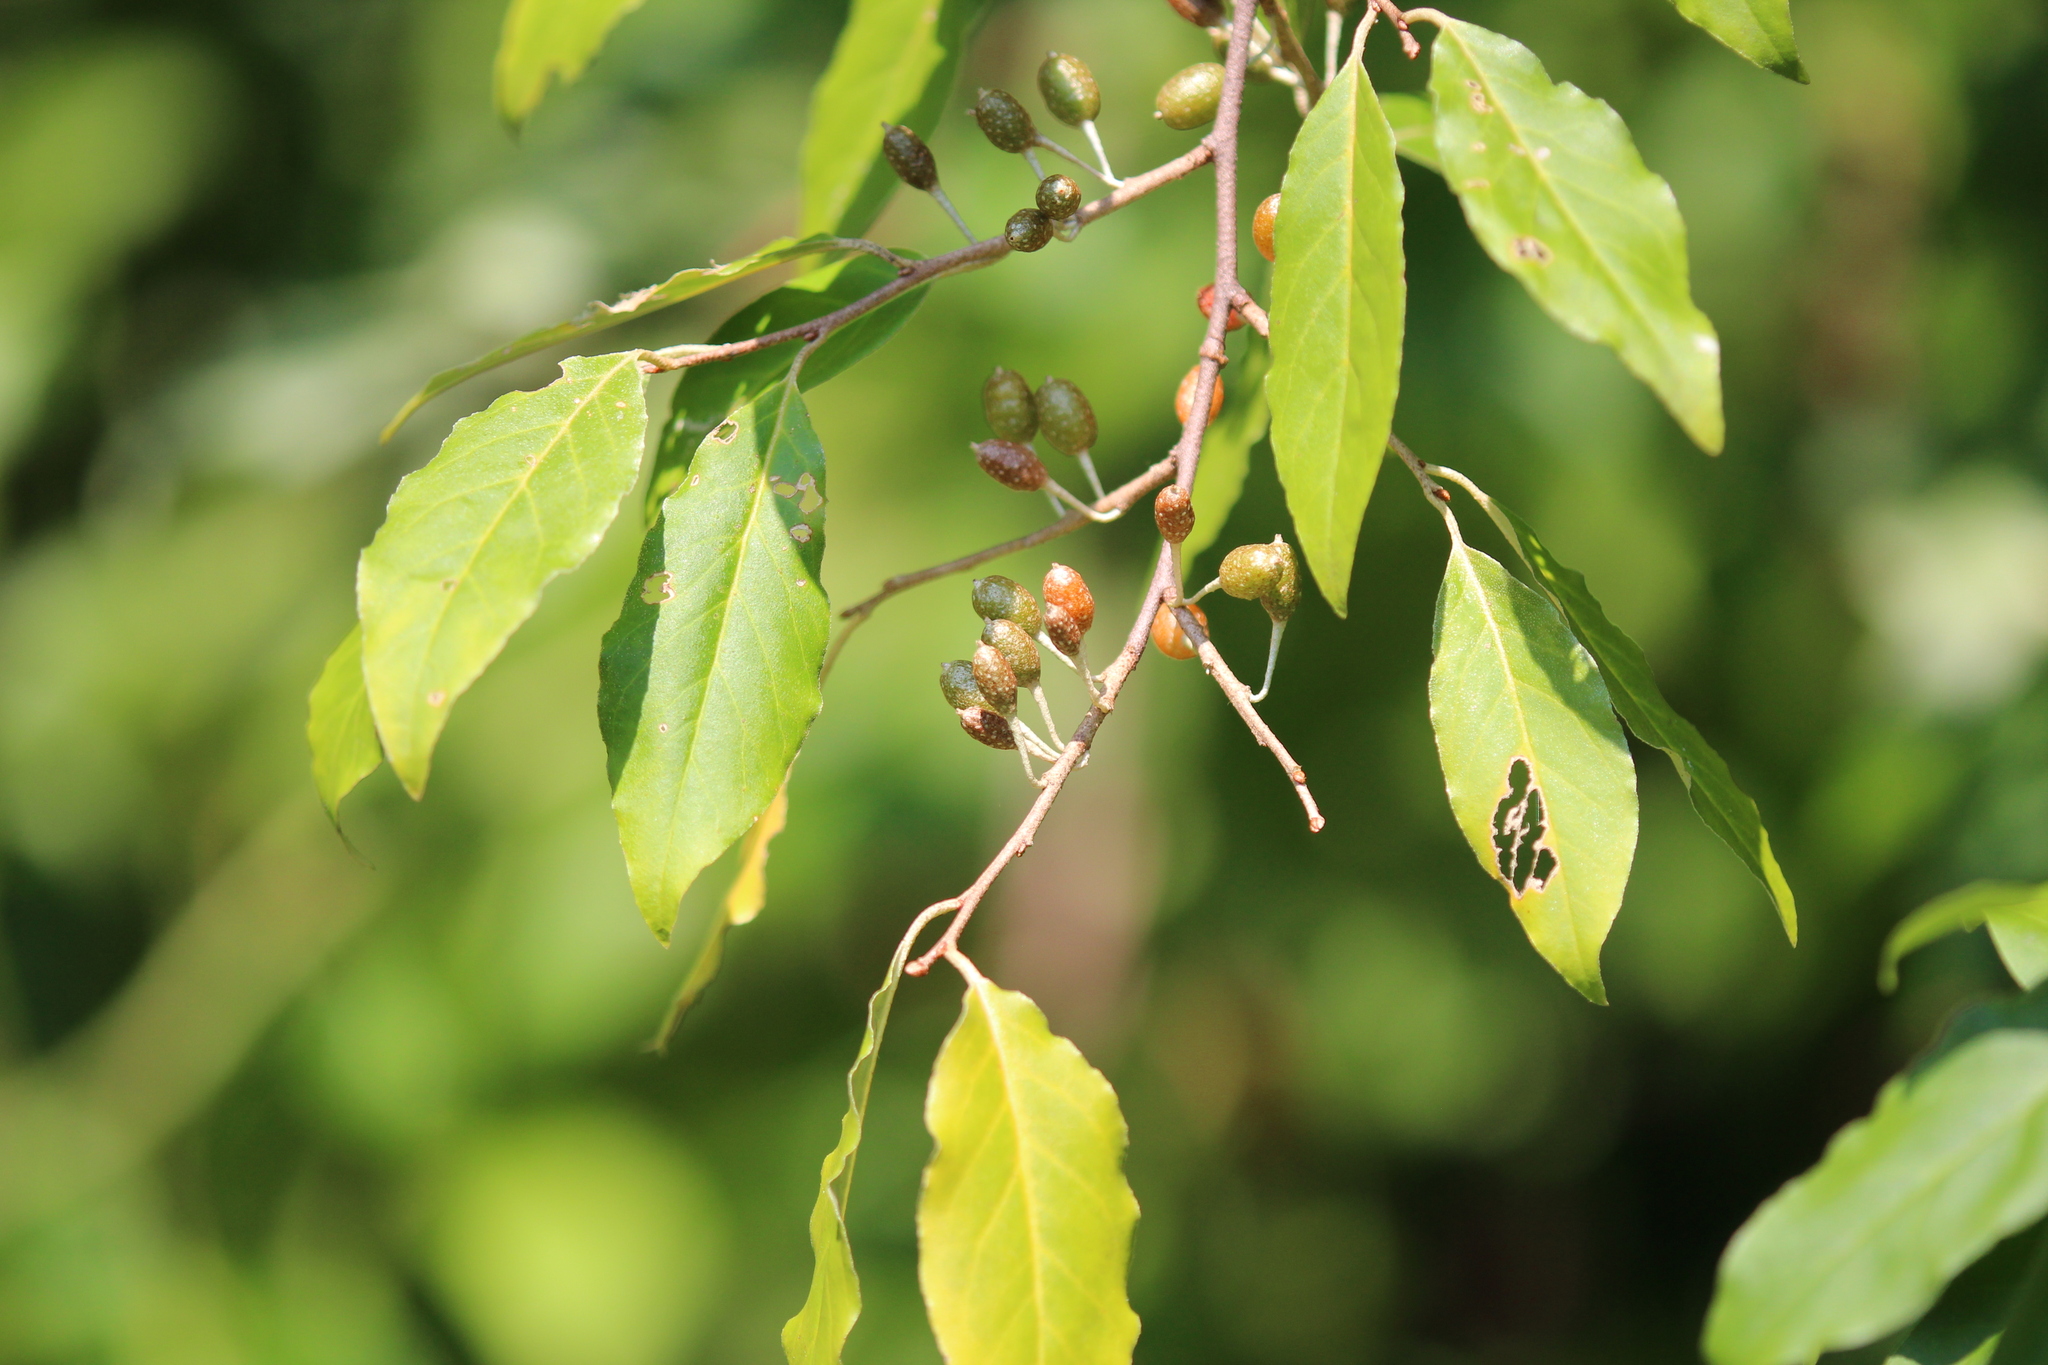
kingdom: Plantae
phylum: Tracheophyta
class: Magnoliopsida
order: Rosales
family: Elaeagnaceae
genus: Elaeagnus
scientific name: Elaeagnus umbellata
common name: Autumn olive
